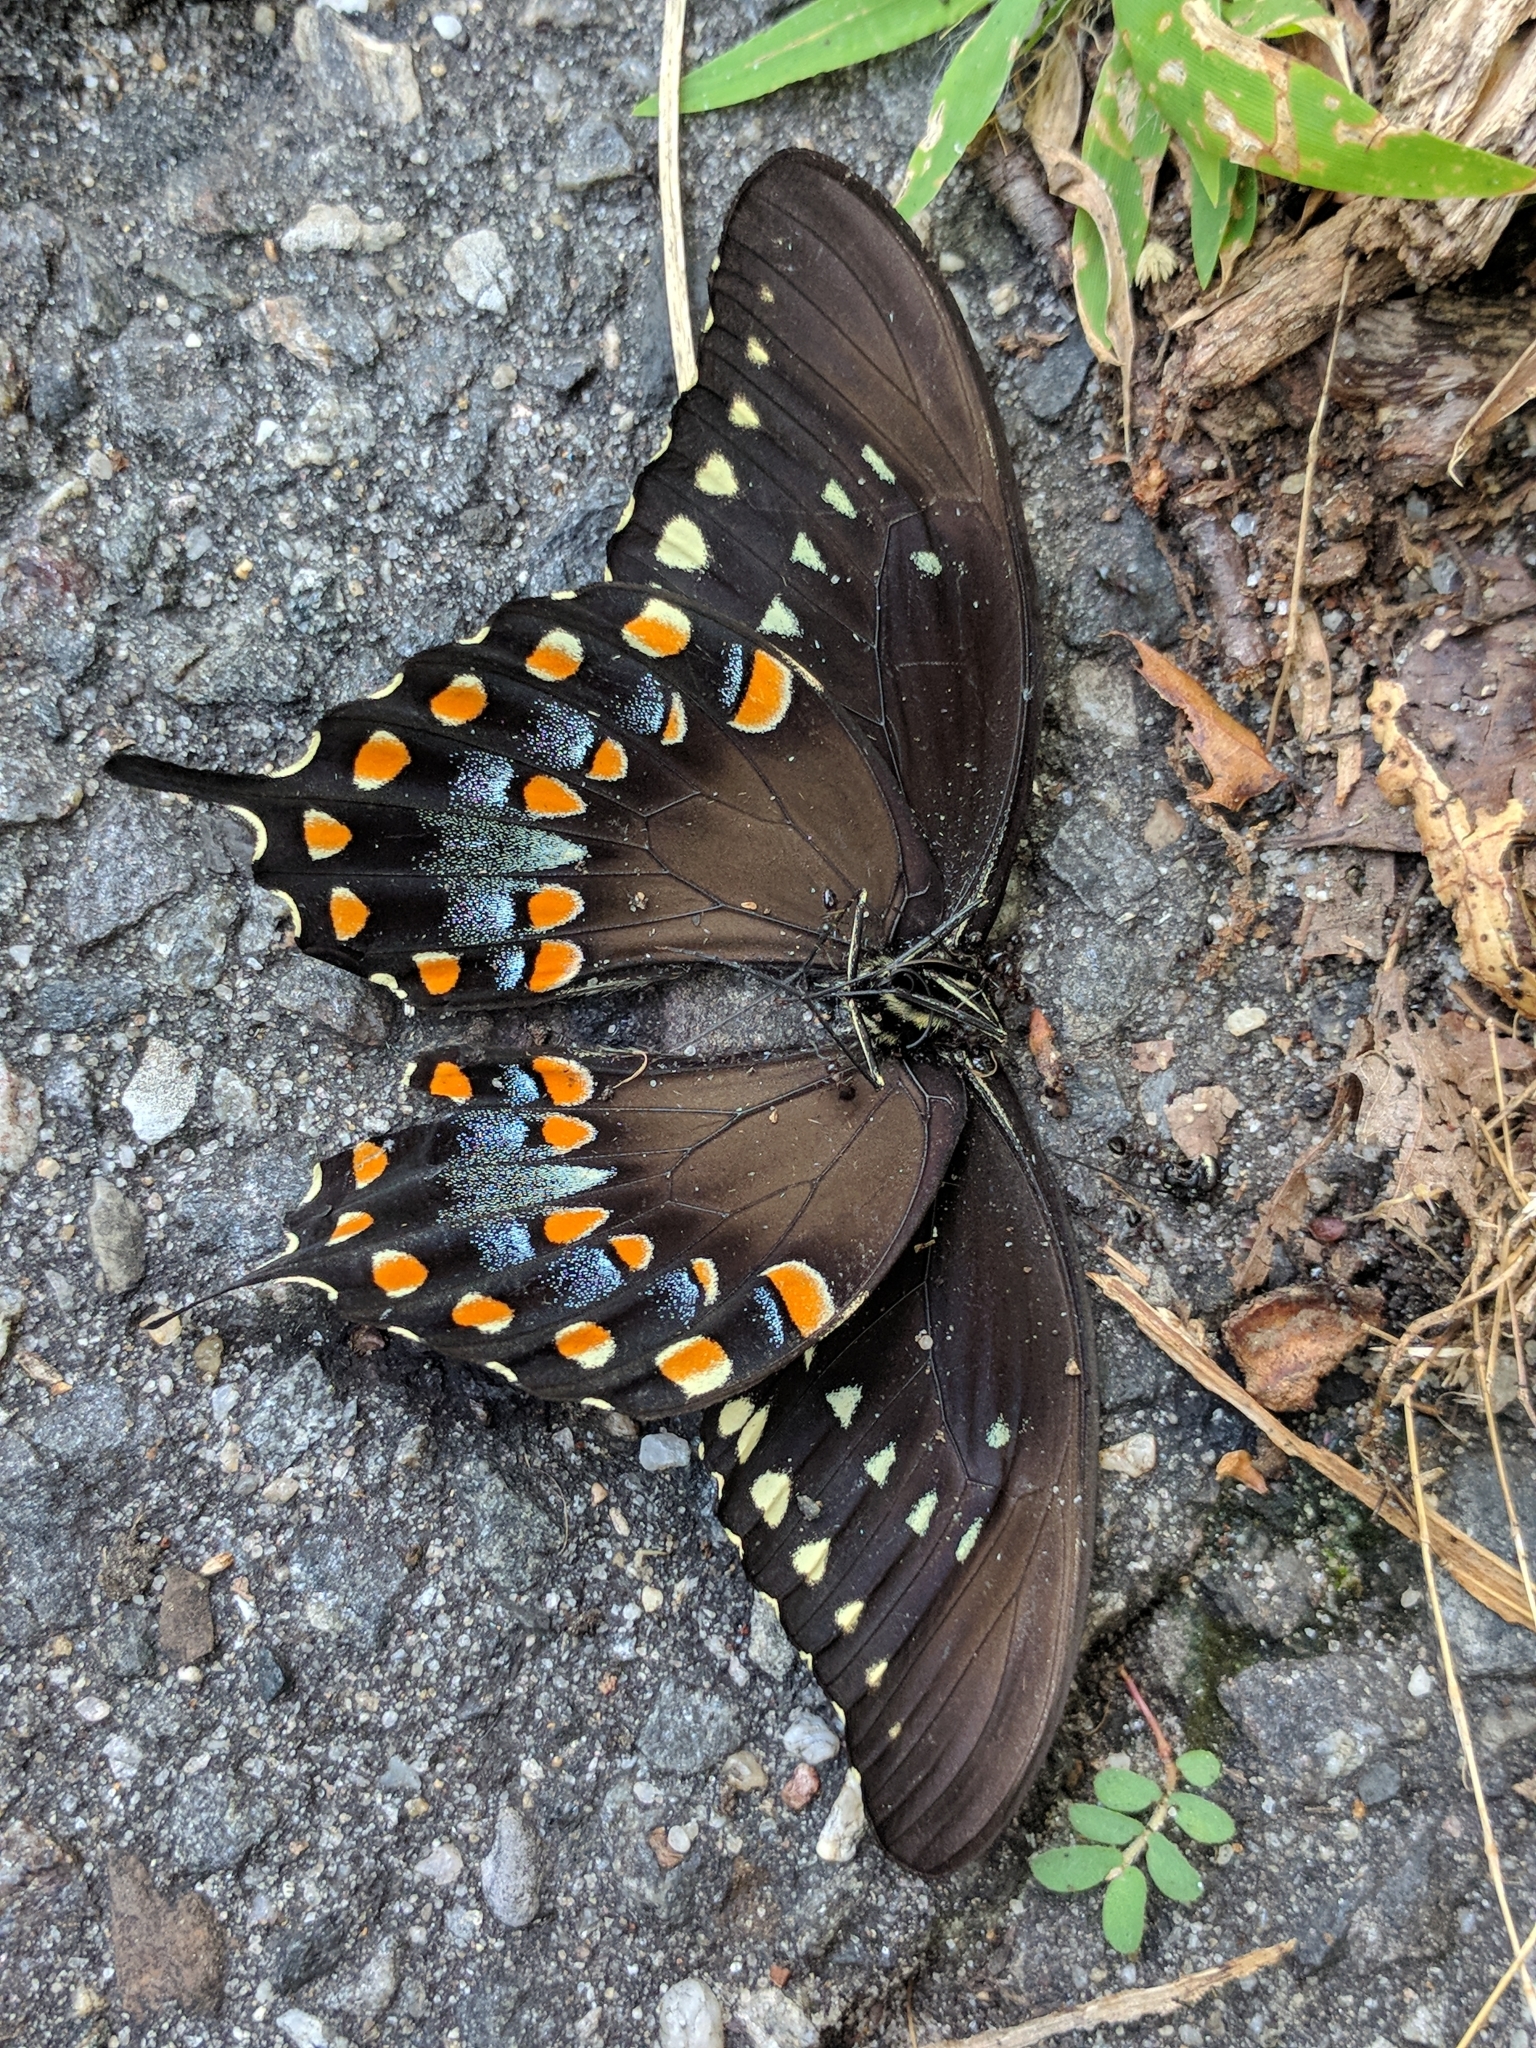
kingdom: Animalia
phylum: Arthropoda
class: Insecta
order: Lepidoptera
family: Papilionidae
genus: Papilio
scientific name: Papilio troilus
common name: Spicebush swallowtail
